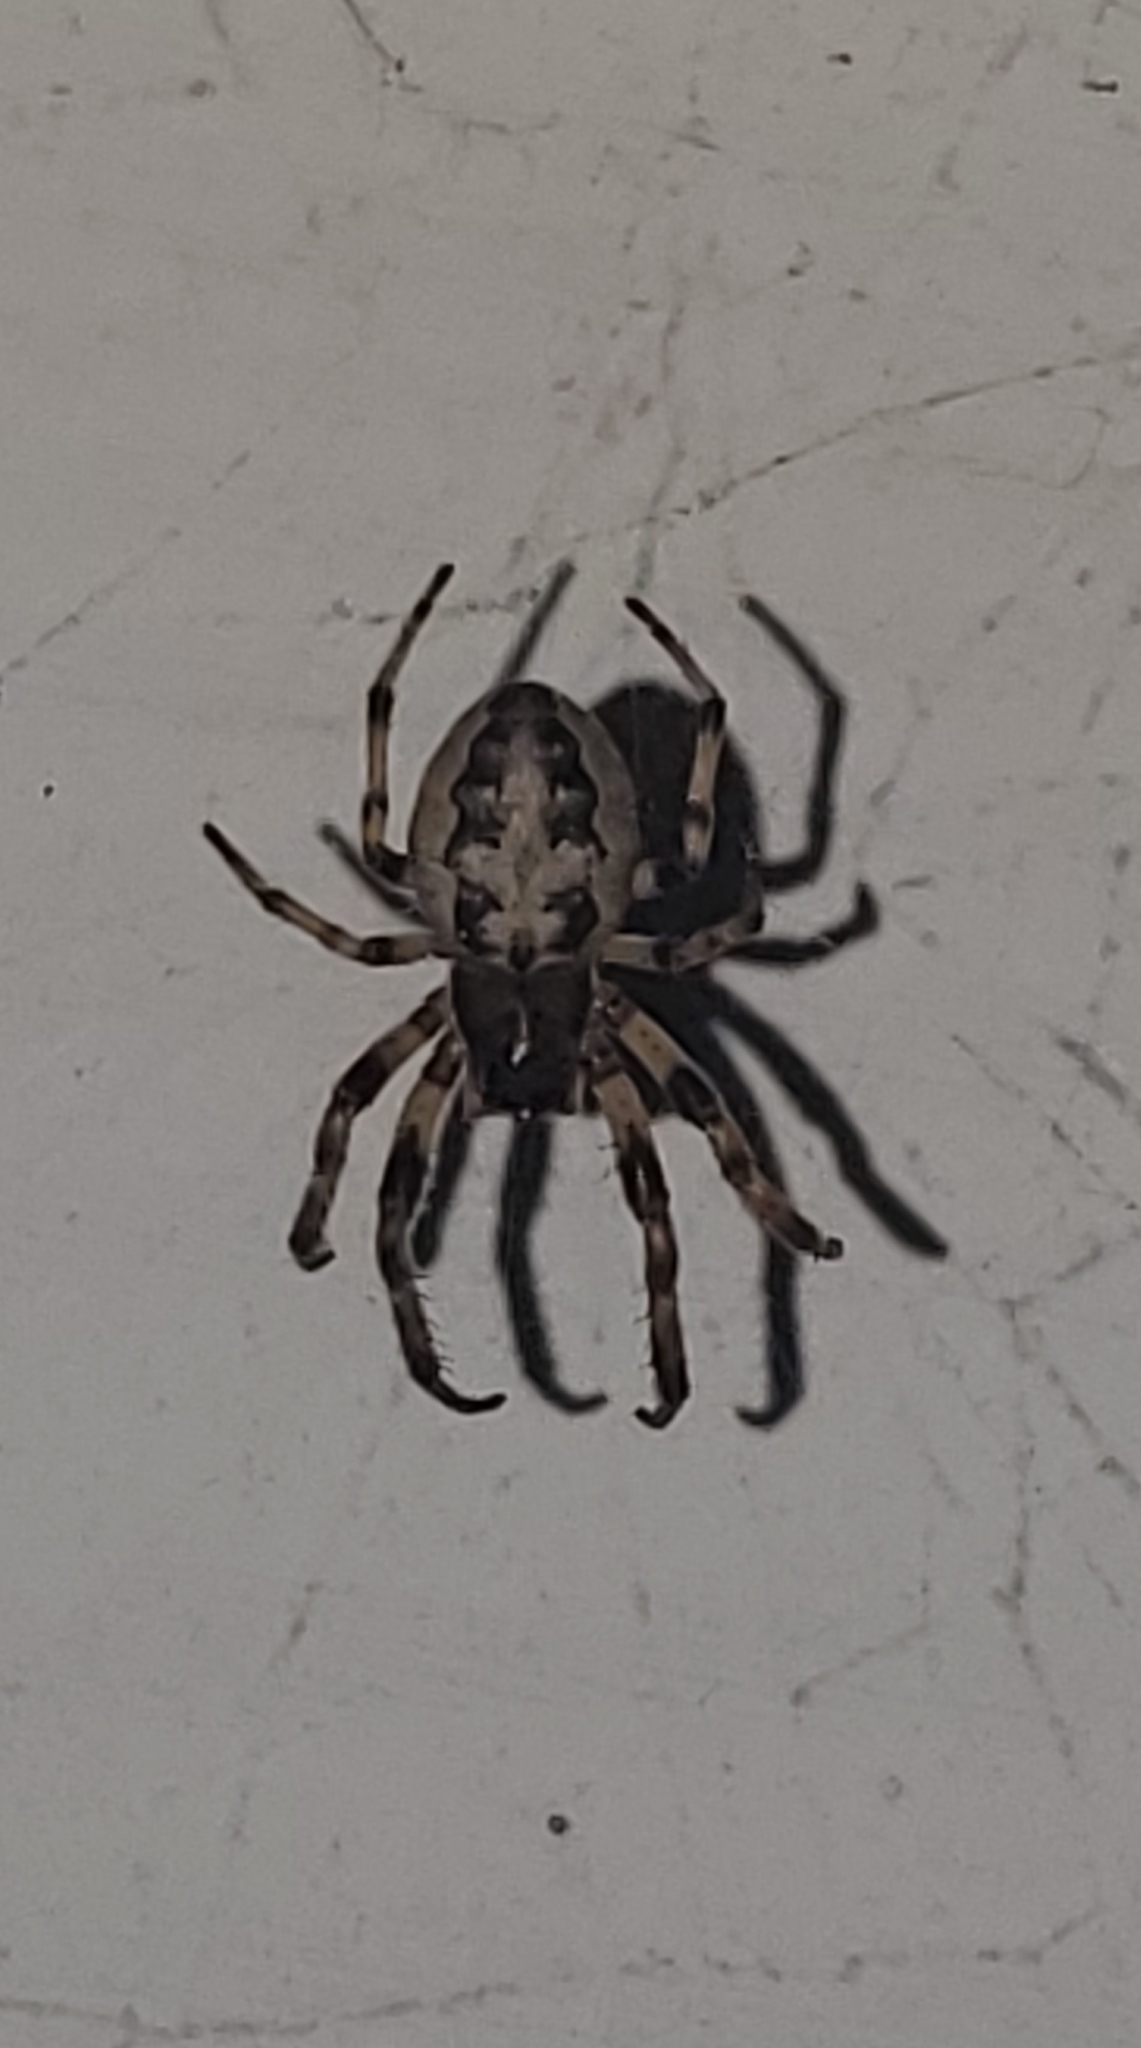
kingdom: Animalia
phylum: Arthropoda
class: Arachnida
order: Araneae
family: Araneidae
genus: Larinioides
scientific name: Larinioides cornutus
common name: Furrow orbweaver
